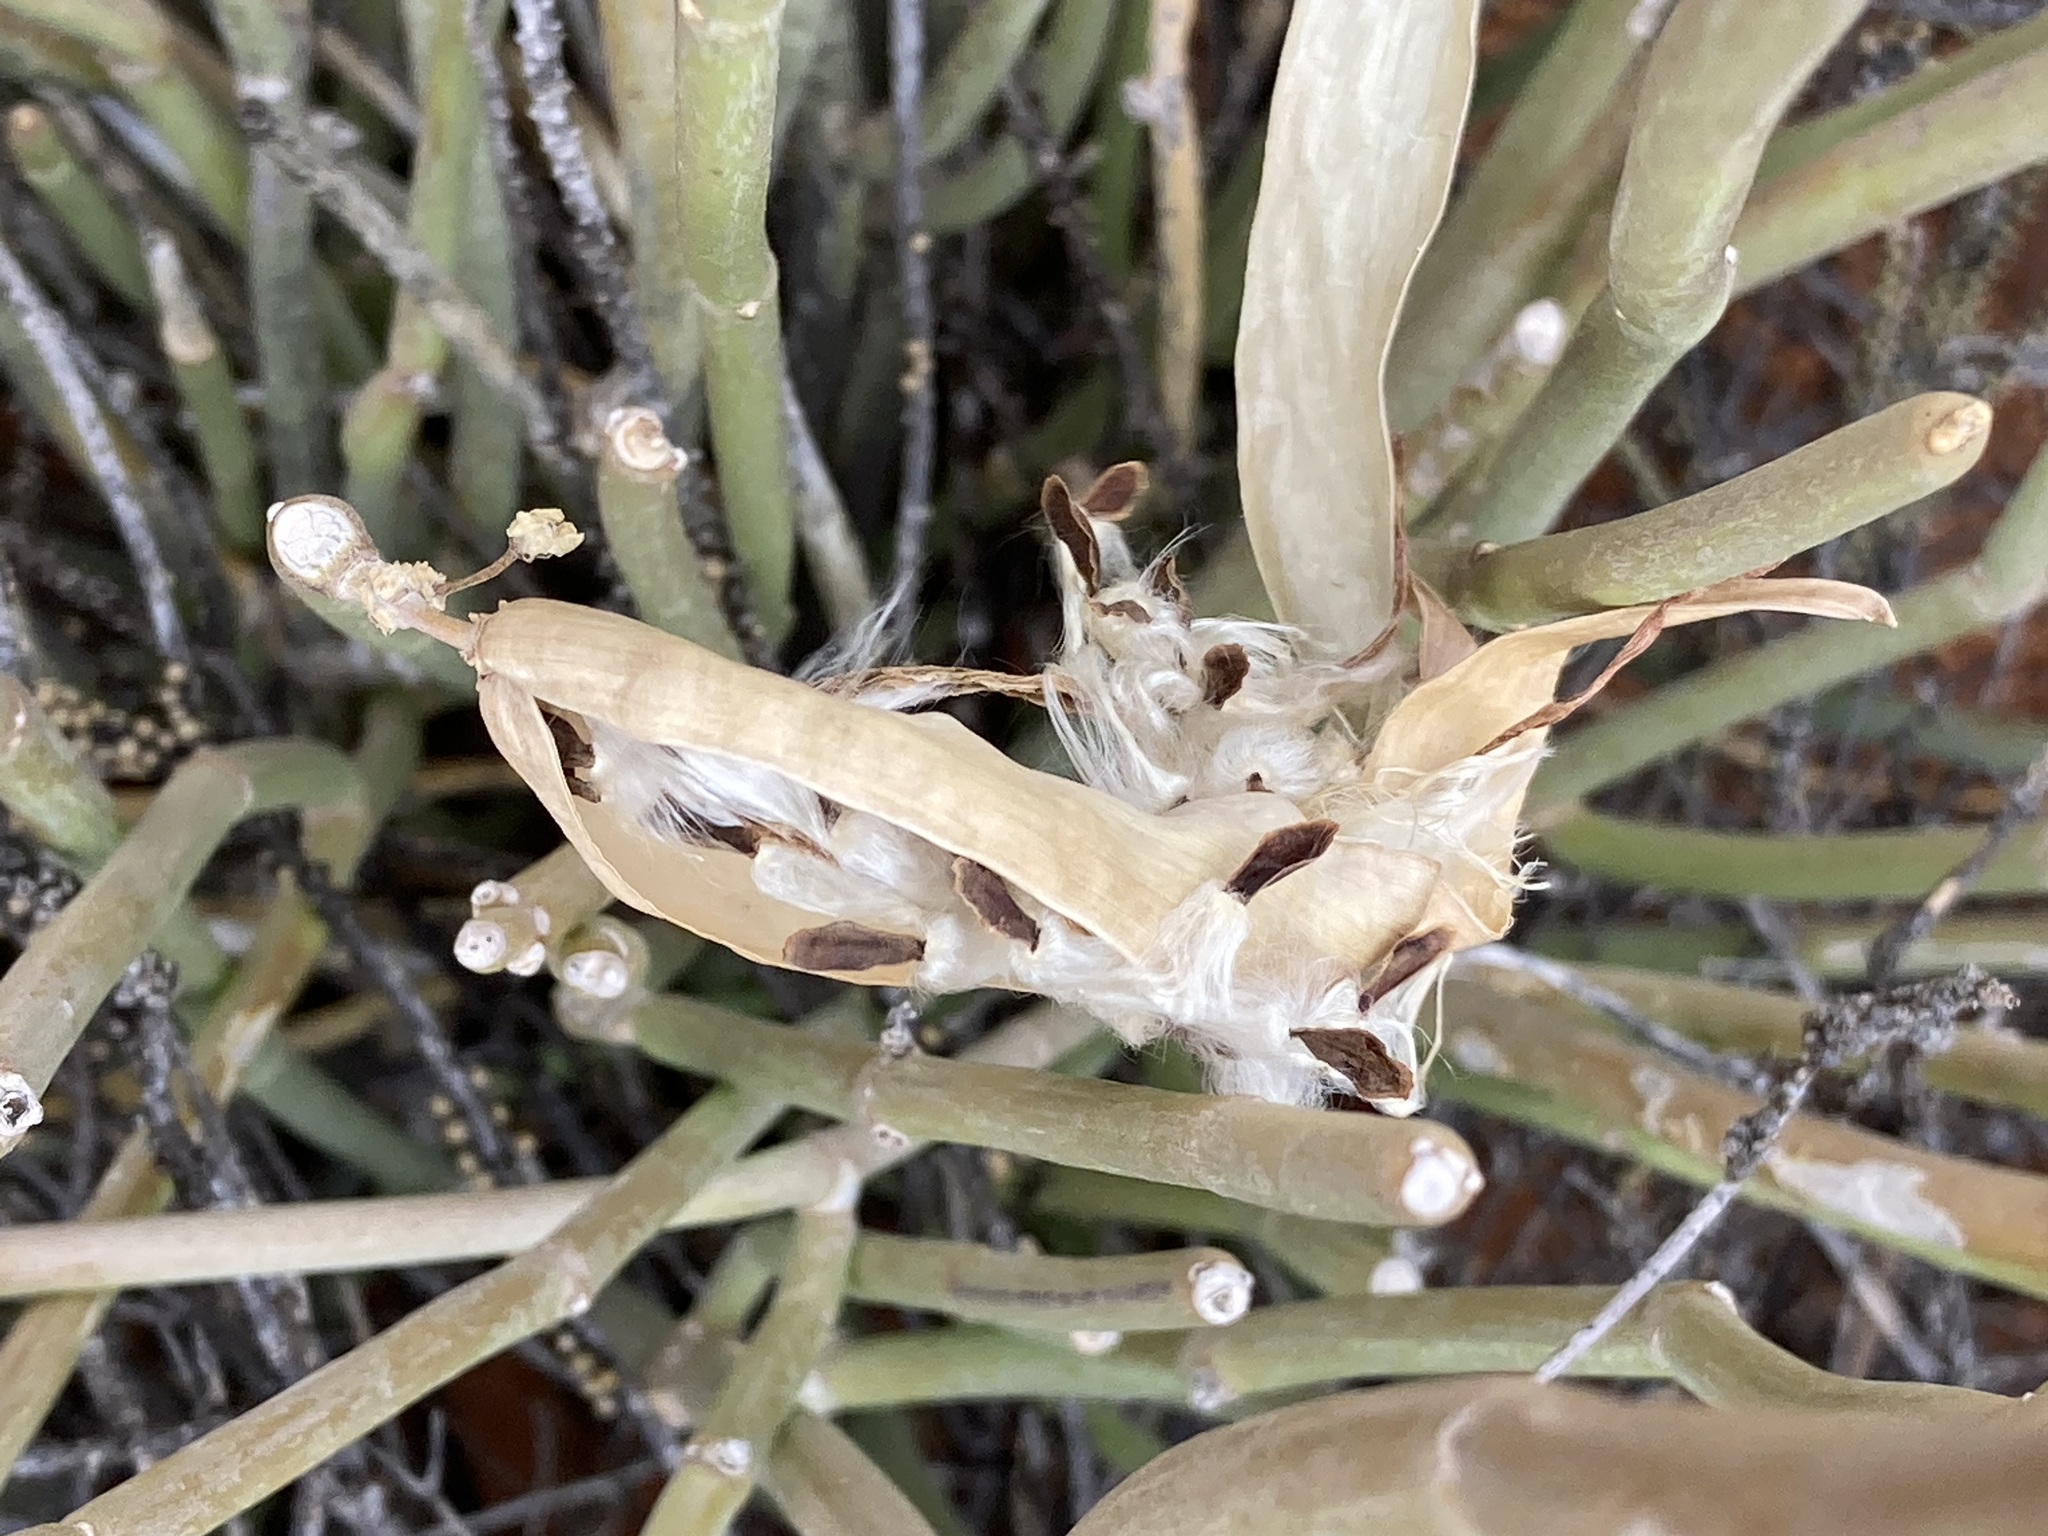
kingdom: Plantae
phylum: Tracheophyta
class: Magnoliopsida
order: Gentianales
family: Apocynaceae
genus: Cynanchum
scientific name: Cynanchum viminale
